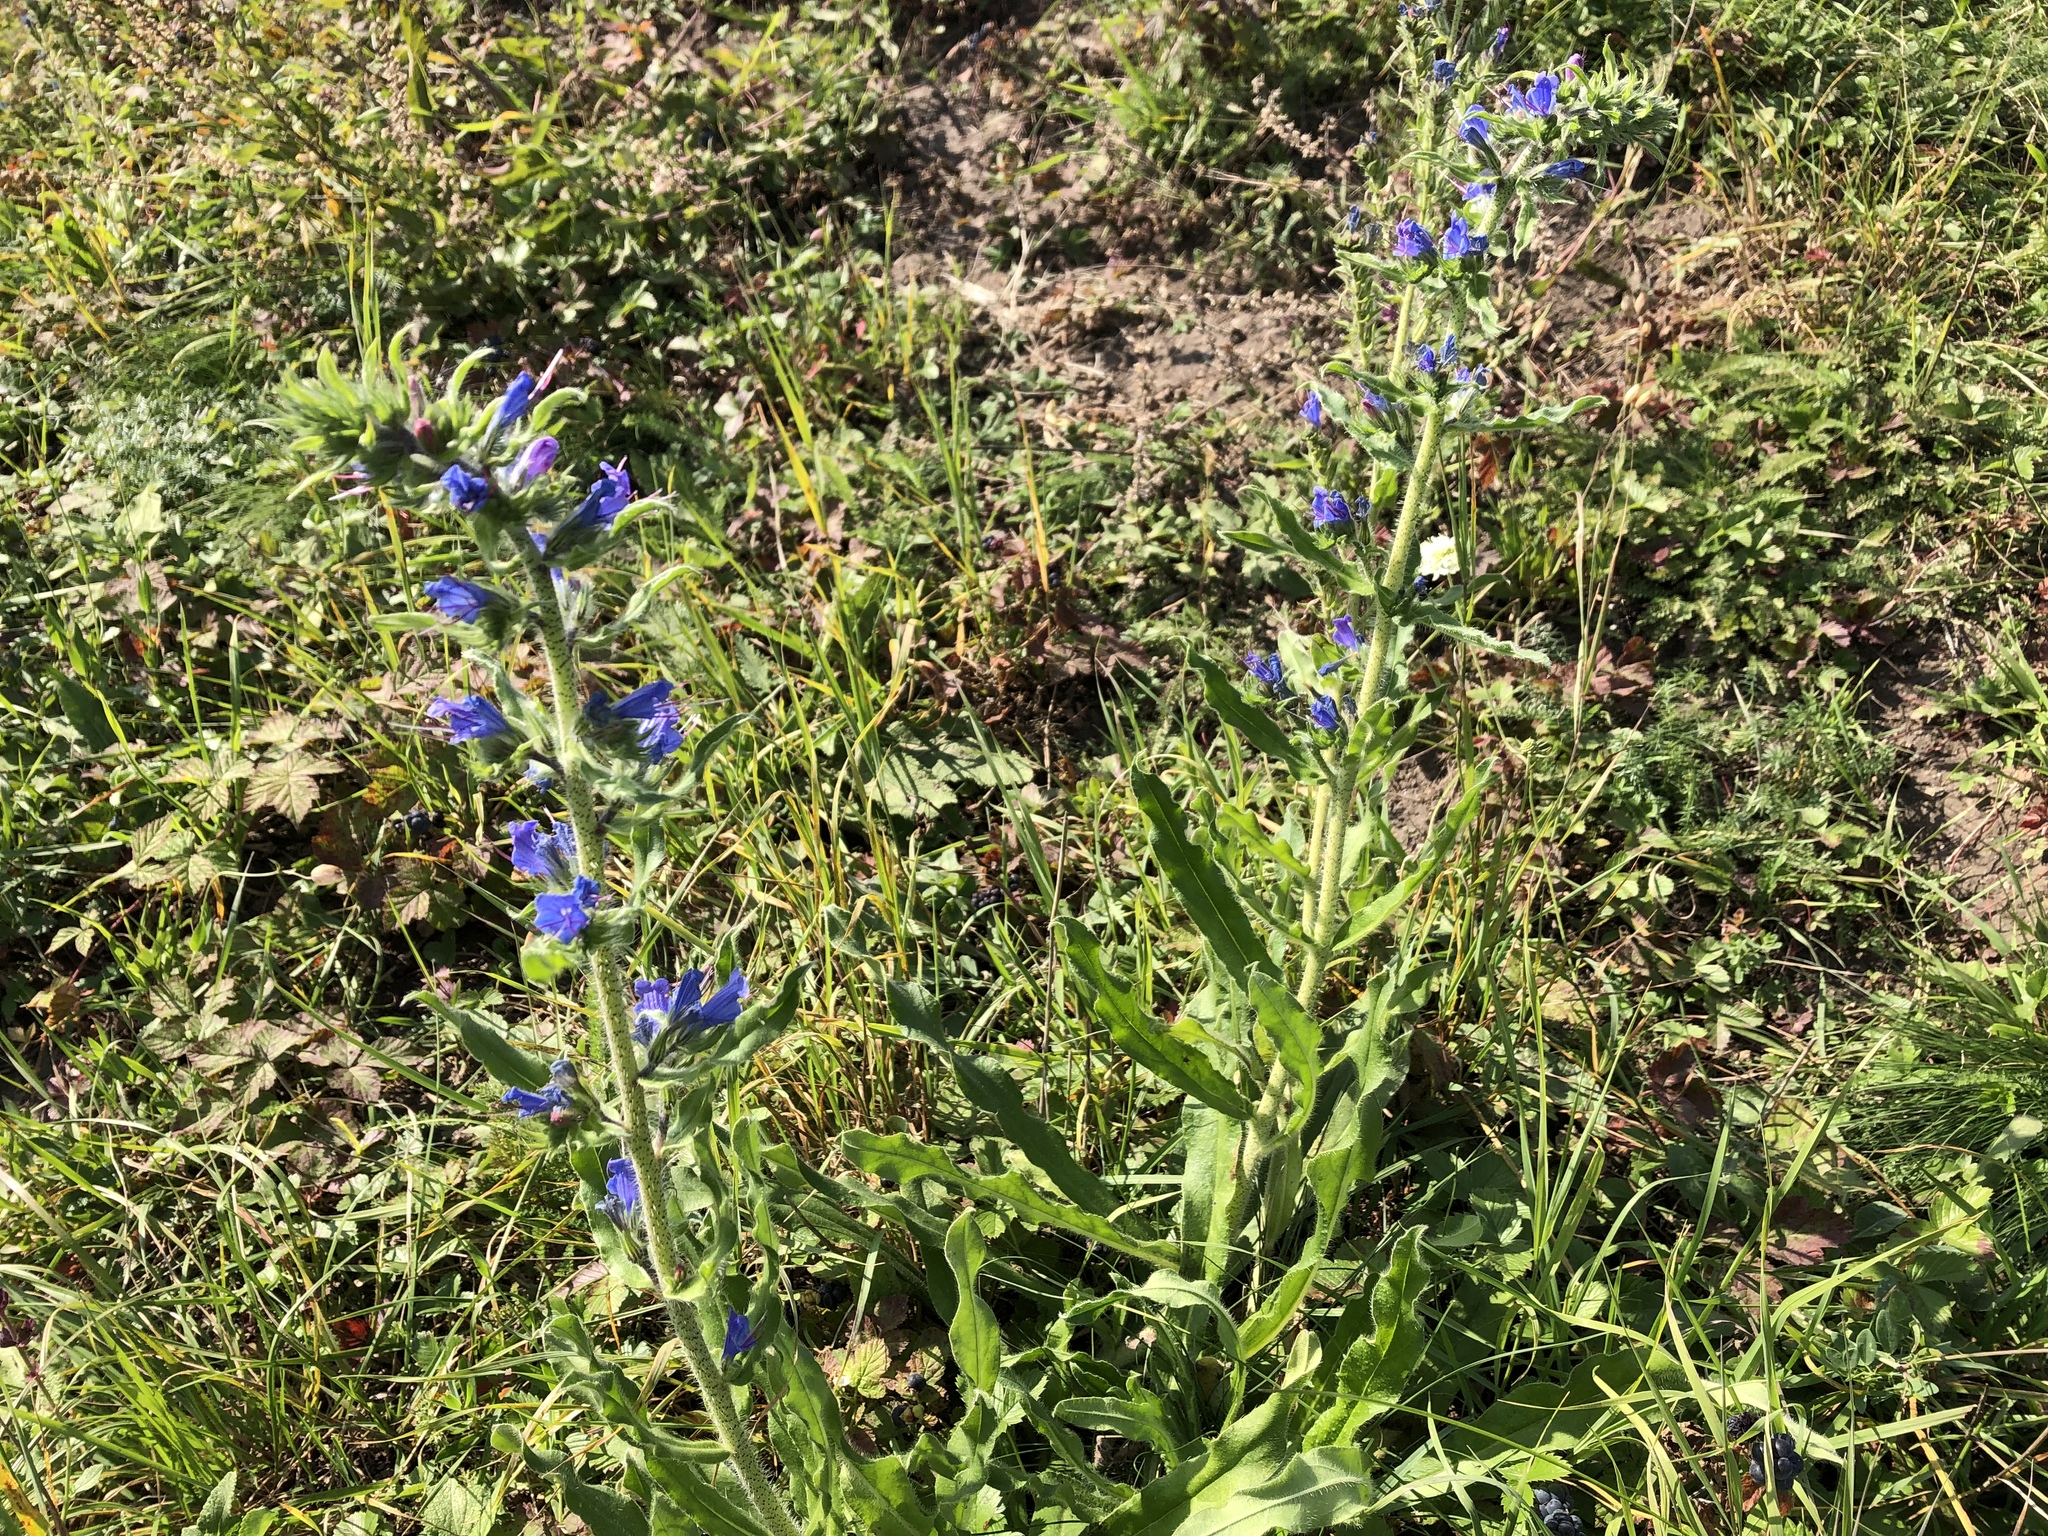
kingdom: Plantae
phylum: Tracheophyta
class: Magnoliopsida
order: Boraginales
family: Boraginaceae
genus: Echium
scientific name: Echium vulgare
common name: Common viper's bugloss
